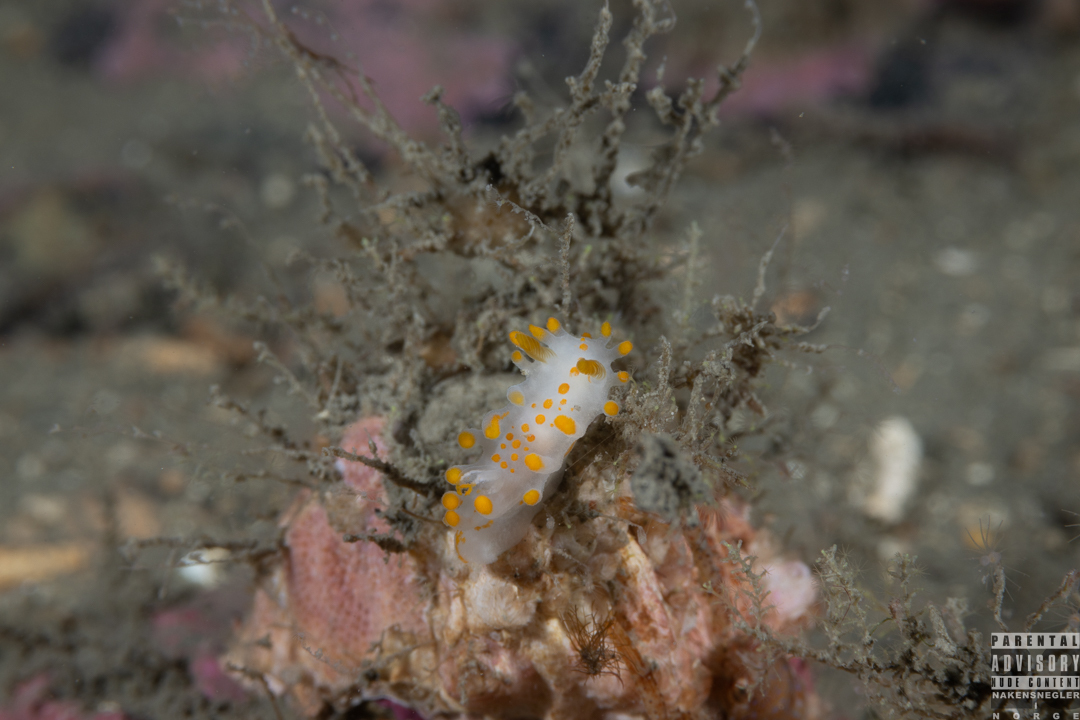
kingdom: Animalia
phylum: Mollusca
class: Gastropoda
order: Nudibranchia
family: Polyceridae
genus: Limacia
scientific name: Limacia clavigera
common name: Orange-clubbed sea slug
